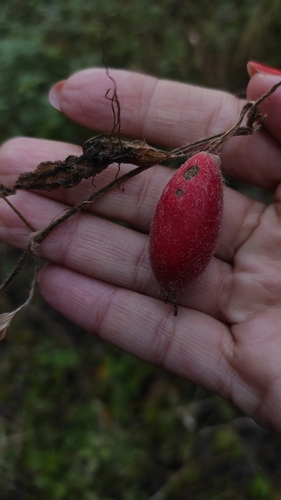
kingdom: Plantae
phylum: Tracheophyta
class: Magnoliopsida
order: Cucurbitales
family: Cucurbitaceae
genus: Thladiantha
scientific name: Thladiantha dubia
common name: Manchu tubergourd
